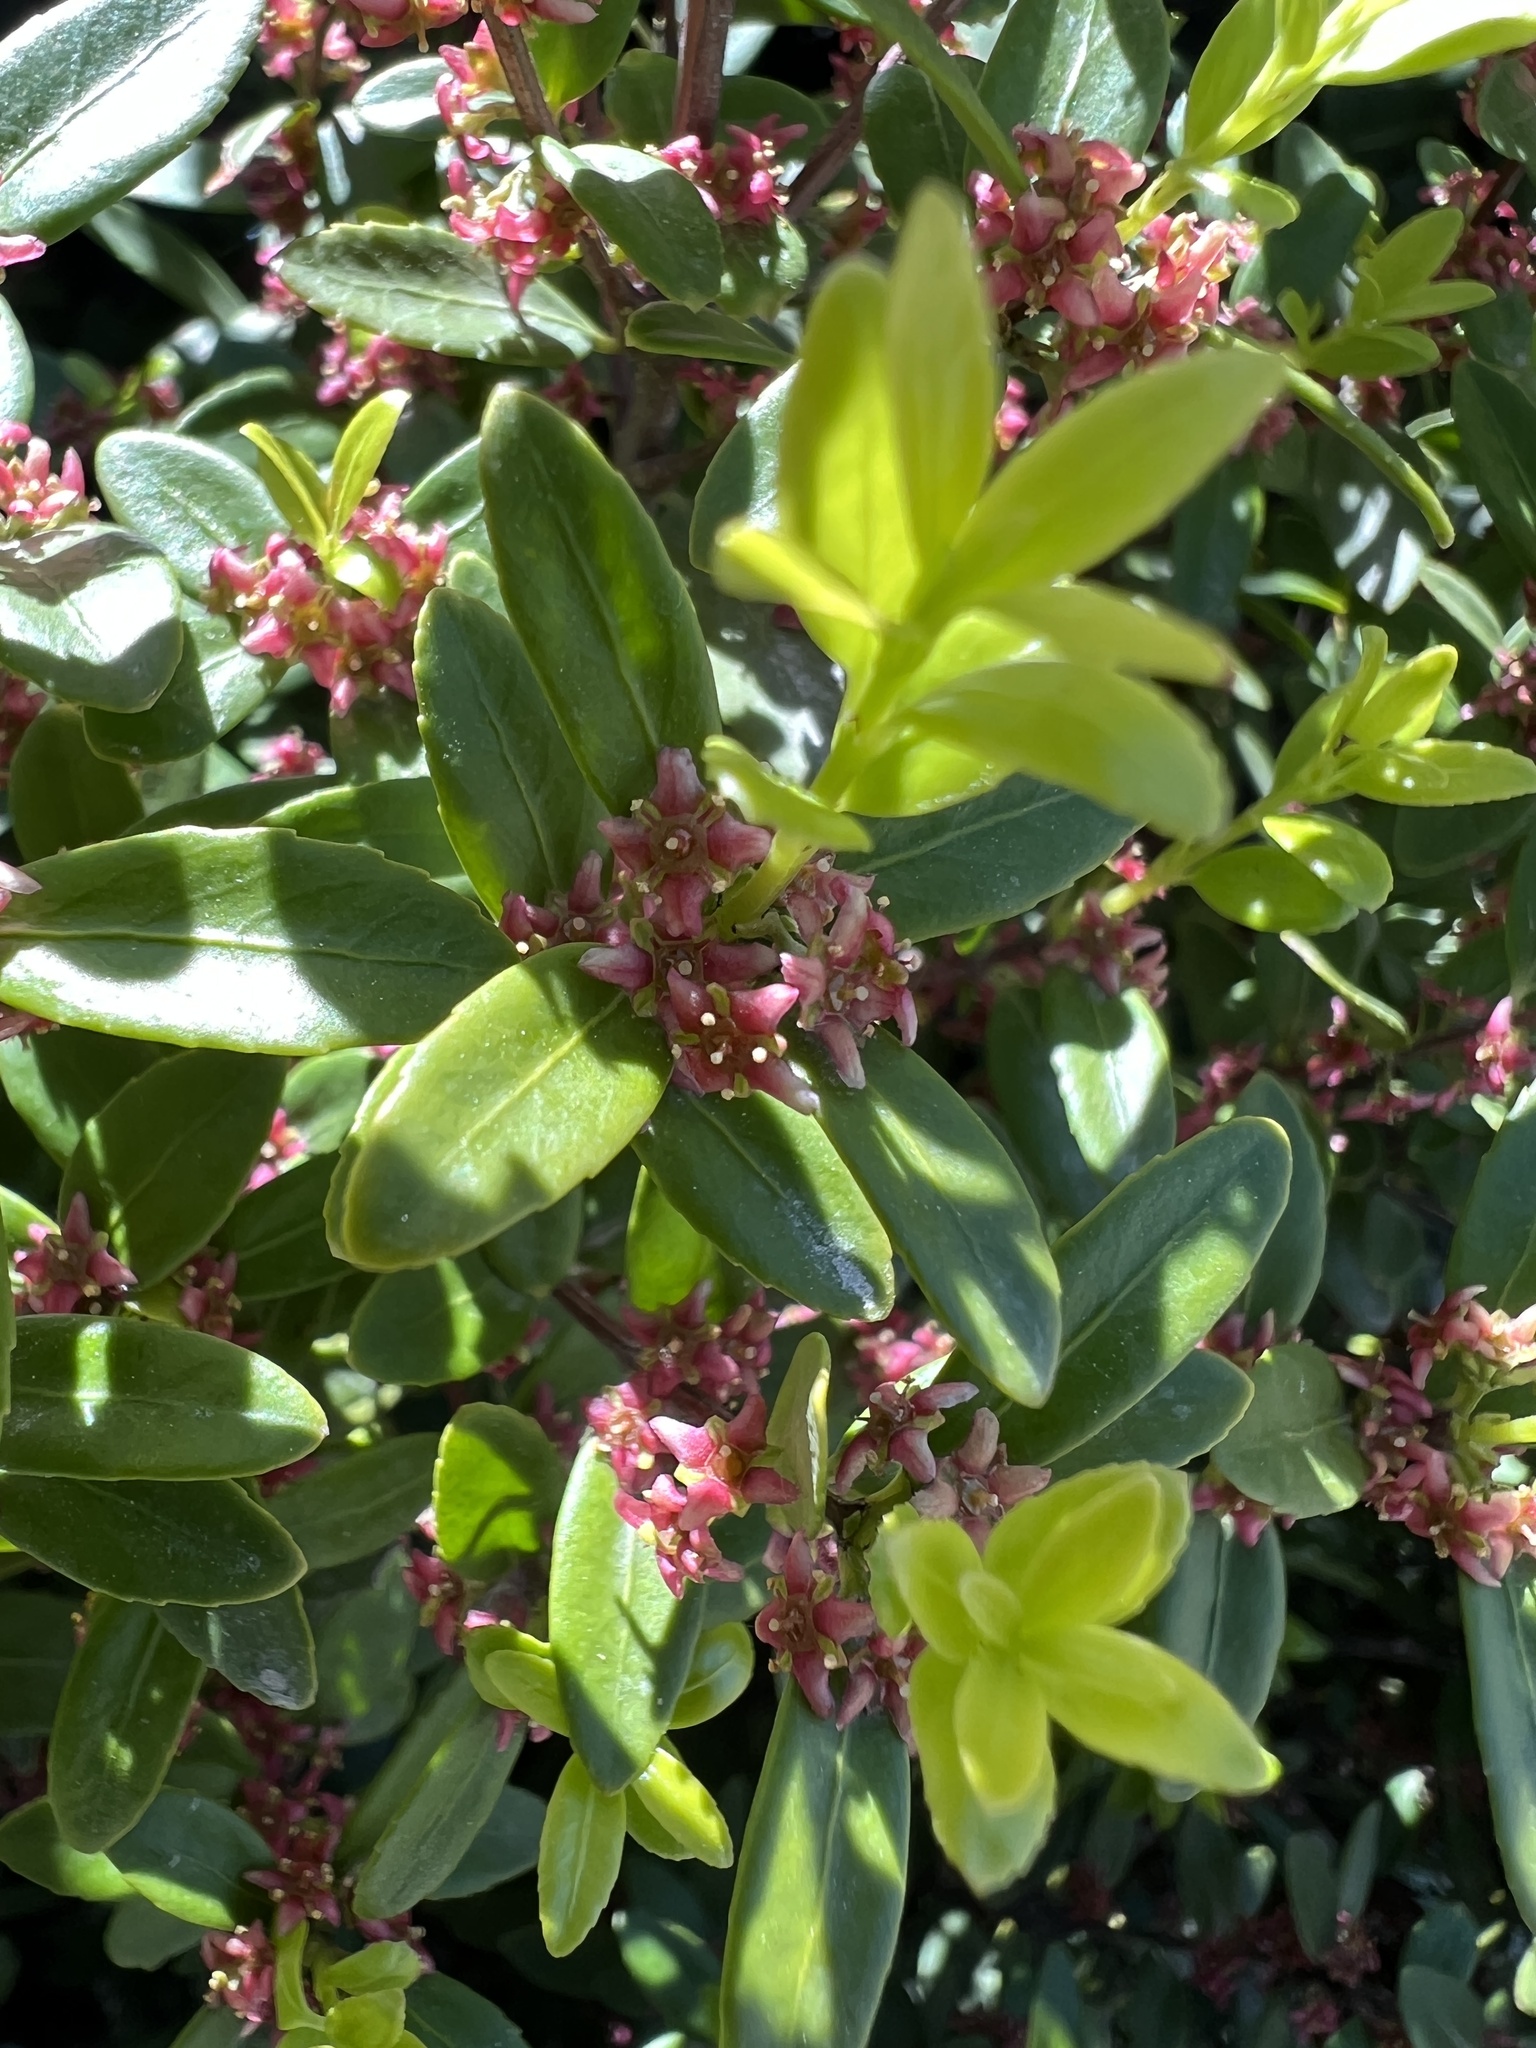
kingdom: Plantae
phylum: Tracheophyta
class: Magnoliopsida
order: Celastrales
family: Celastraceae
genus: Paxistima
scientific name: Paxistima myrsinites
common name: Mountain-lover
